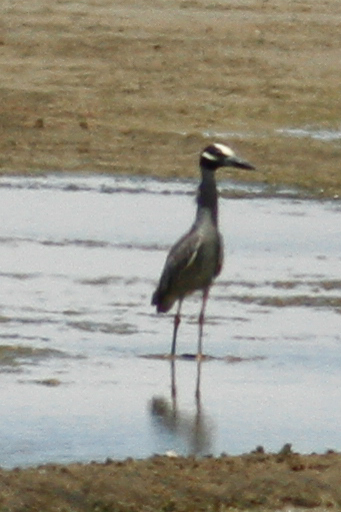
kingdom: Animalia
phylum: Chordata
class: Aves
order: Pelecaniformes
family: Ardeidae
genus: Nyctanassa
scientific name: Nyctanassa violacea
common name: Yellow-crowned night heron
